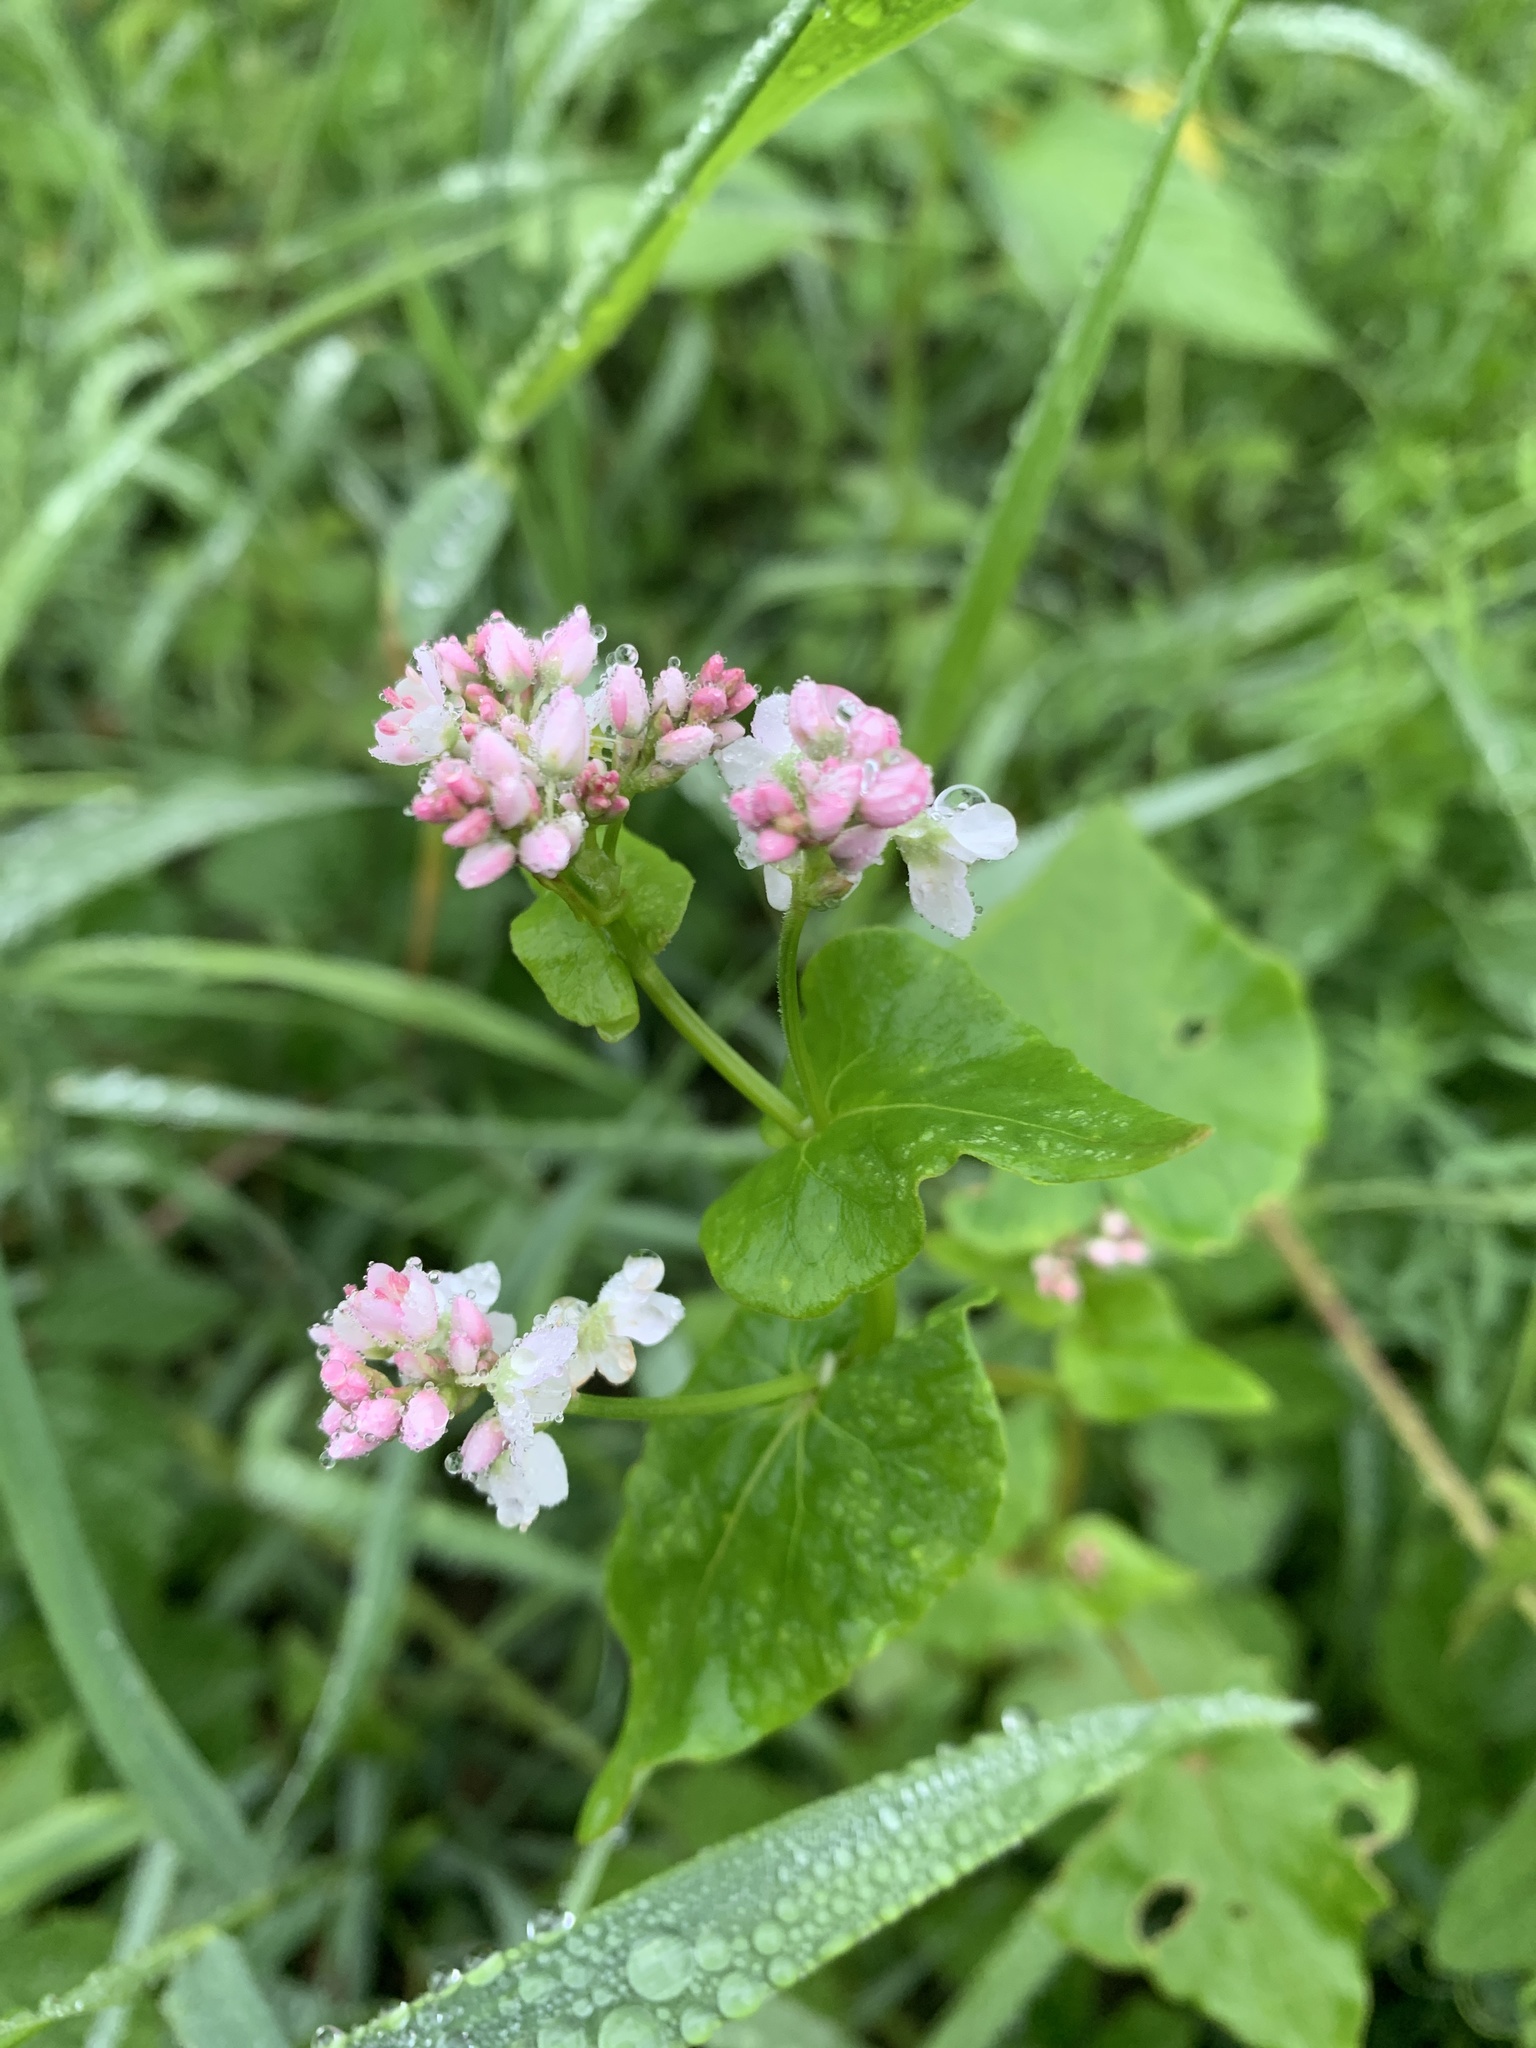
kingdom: Plantae
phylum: Tracheophyta
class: Magnoliopsida
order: Caryophyllales
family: Polygonaceae
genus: Fagopyrum
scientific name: Fagopyrum esculentum
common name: Buckwheat
